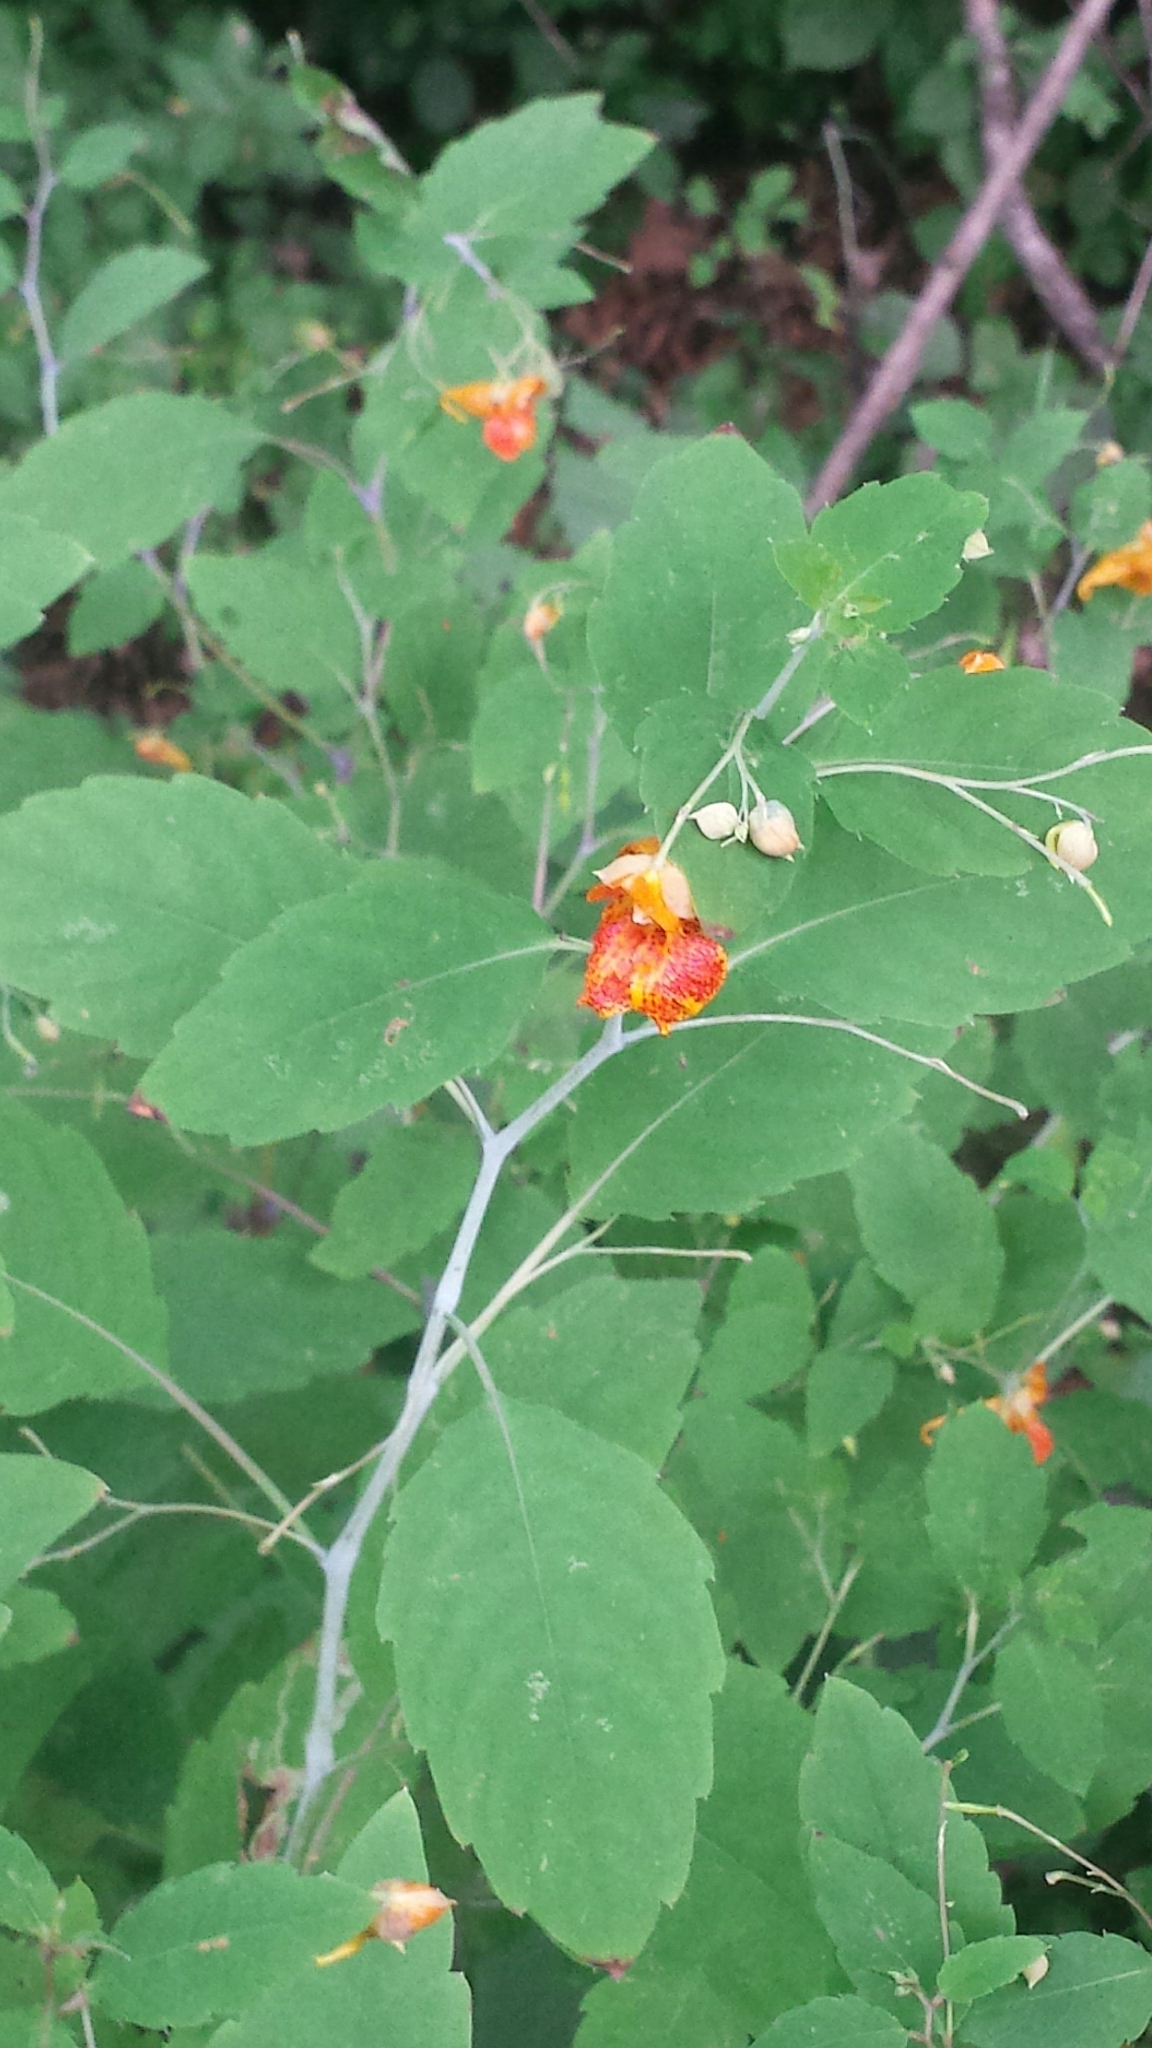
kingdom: Plantae
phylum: Tracheophyta
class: Magnoliopsida
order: Ericales
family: Balsaminaceae
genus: Impatiens
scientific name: Impatiens capensis
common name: Orange balsam
